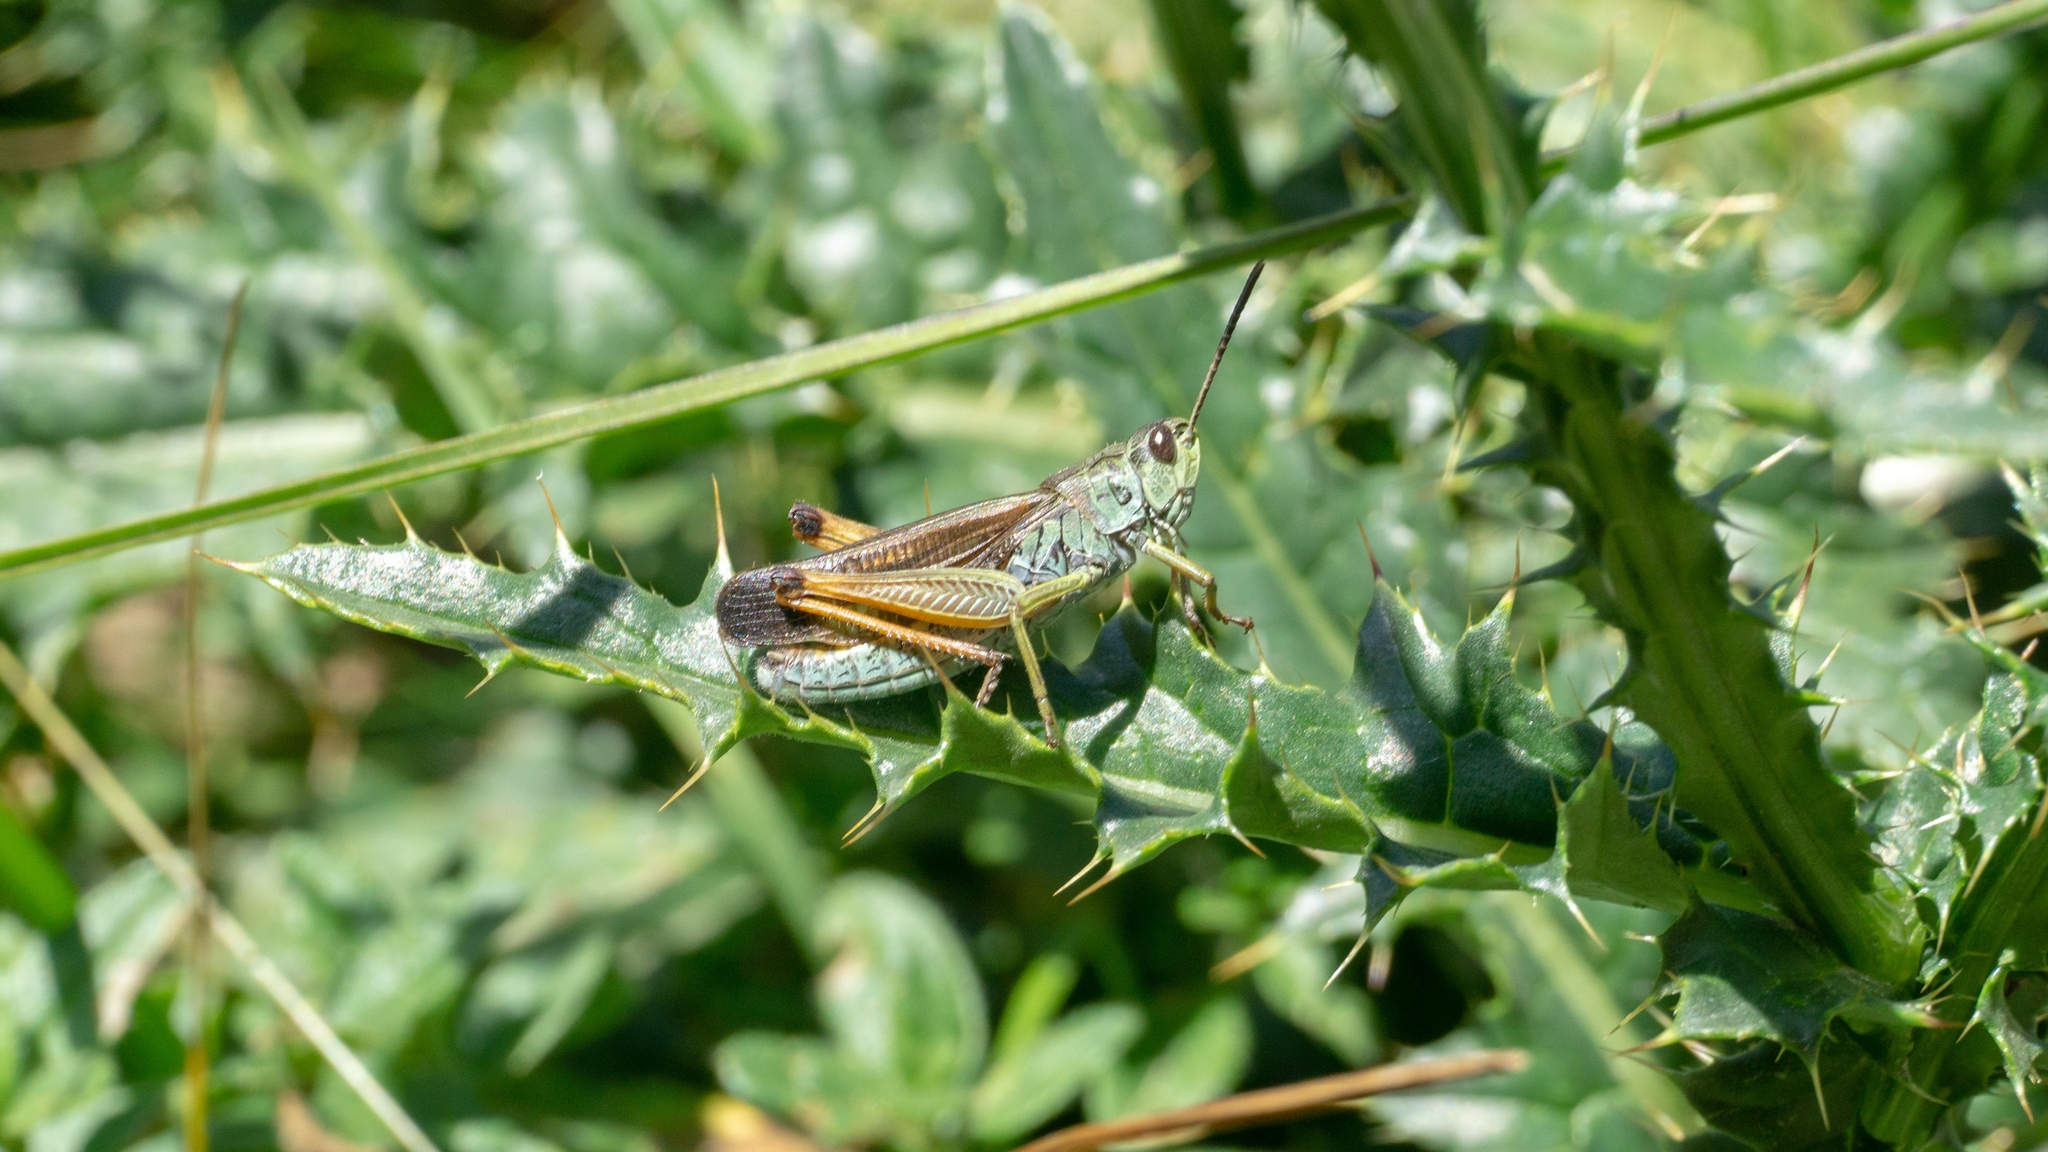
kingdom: Animalia
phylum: Arthropoda
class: Insecta
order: Orthoptera
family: Acrididae
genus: Stauroderus
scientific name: Stauroderus scalaris
